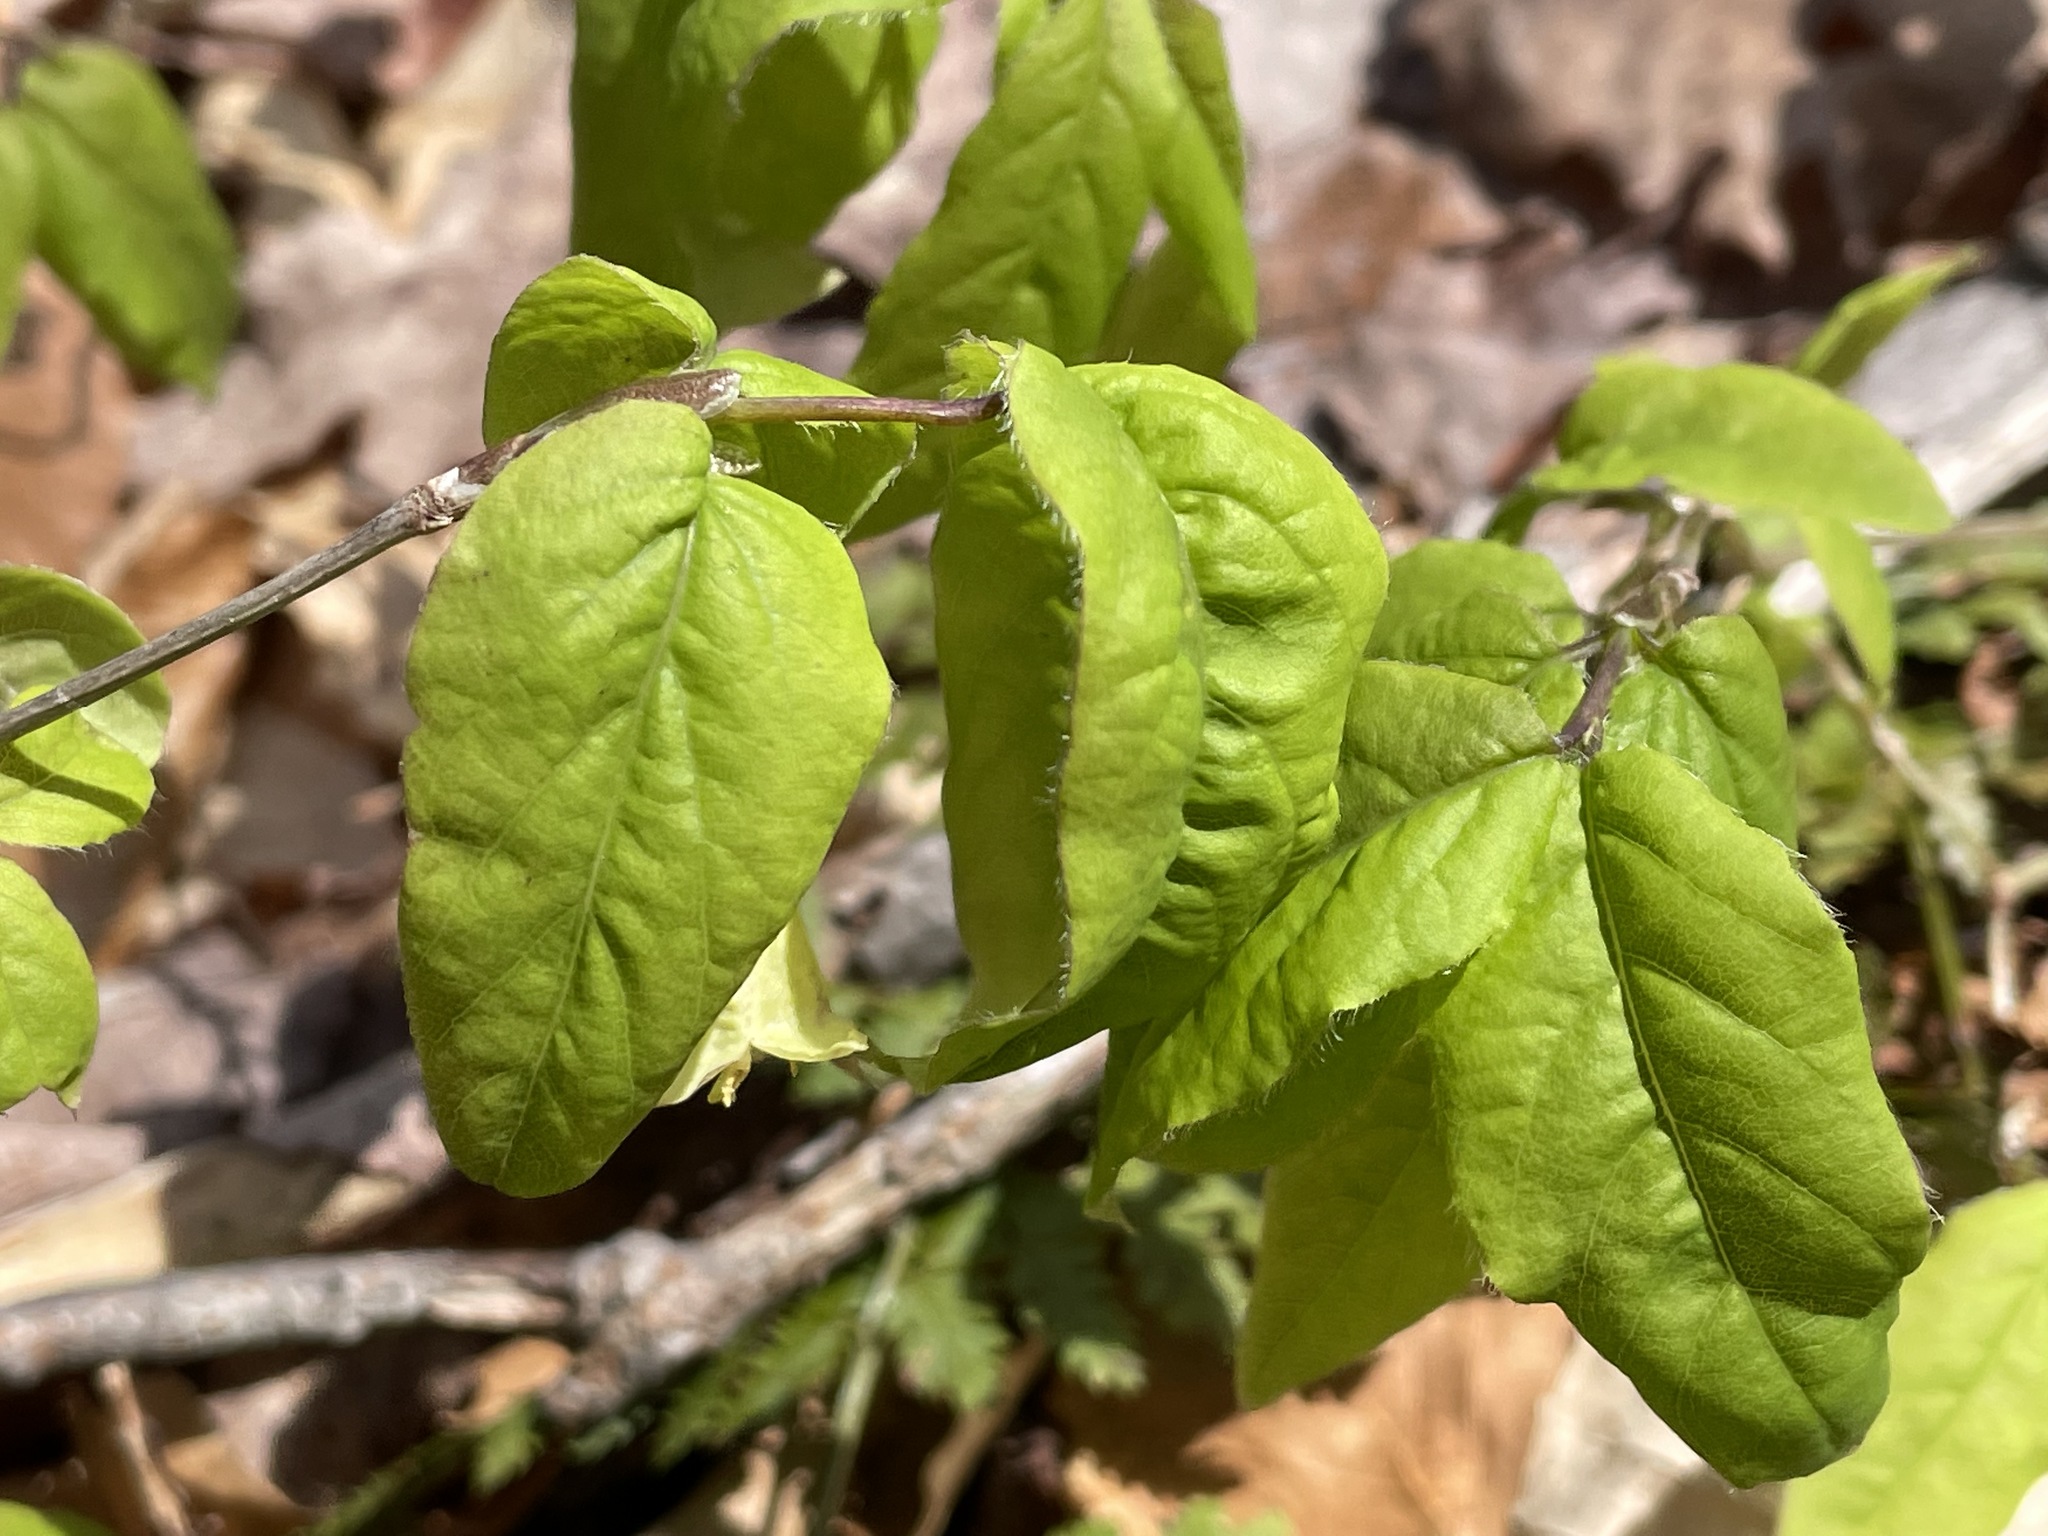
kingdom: Plantae
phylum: Tracheophyta
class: Magnoliopsida
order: Dipsacales
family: Caprifoliaceae
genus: Lonicera
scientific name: Lonicera canadensis
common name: American fly-honeysuckle
